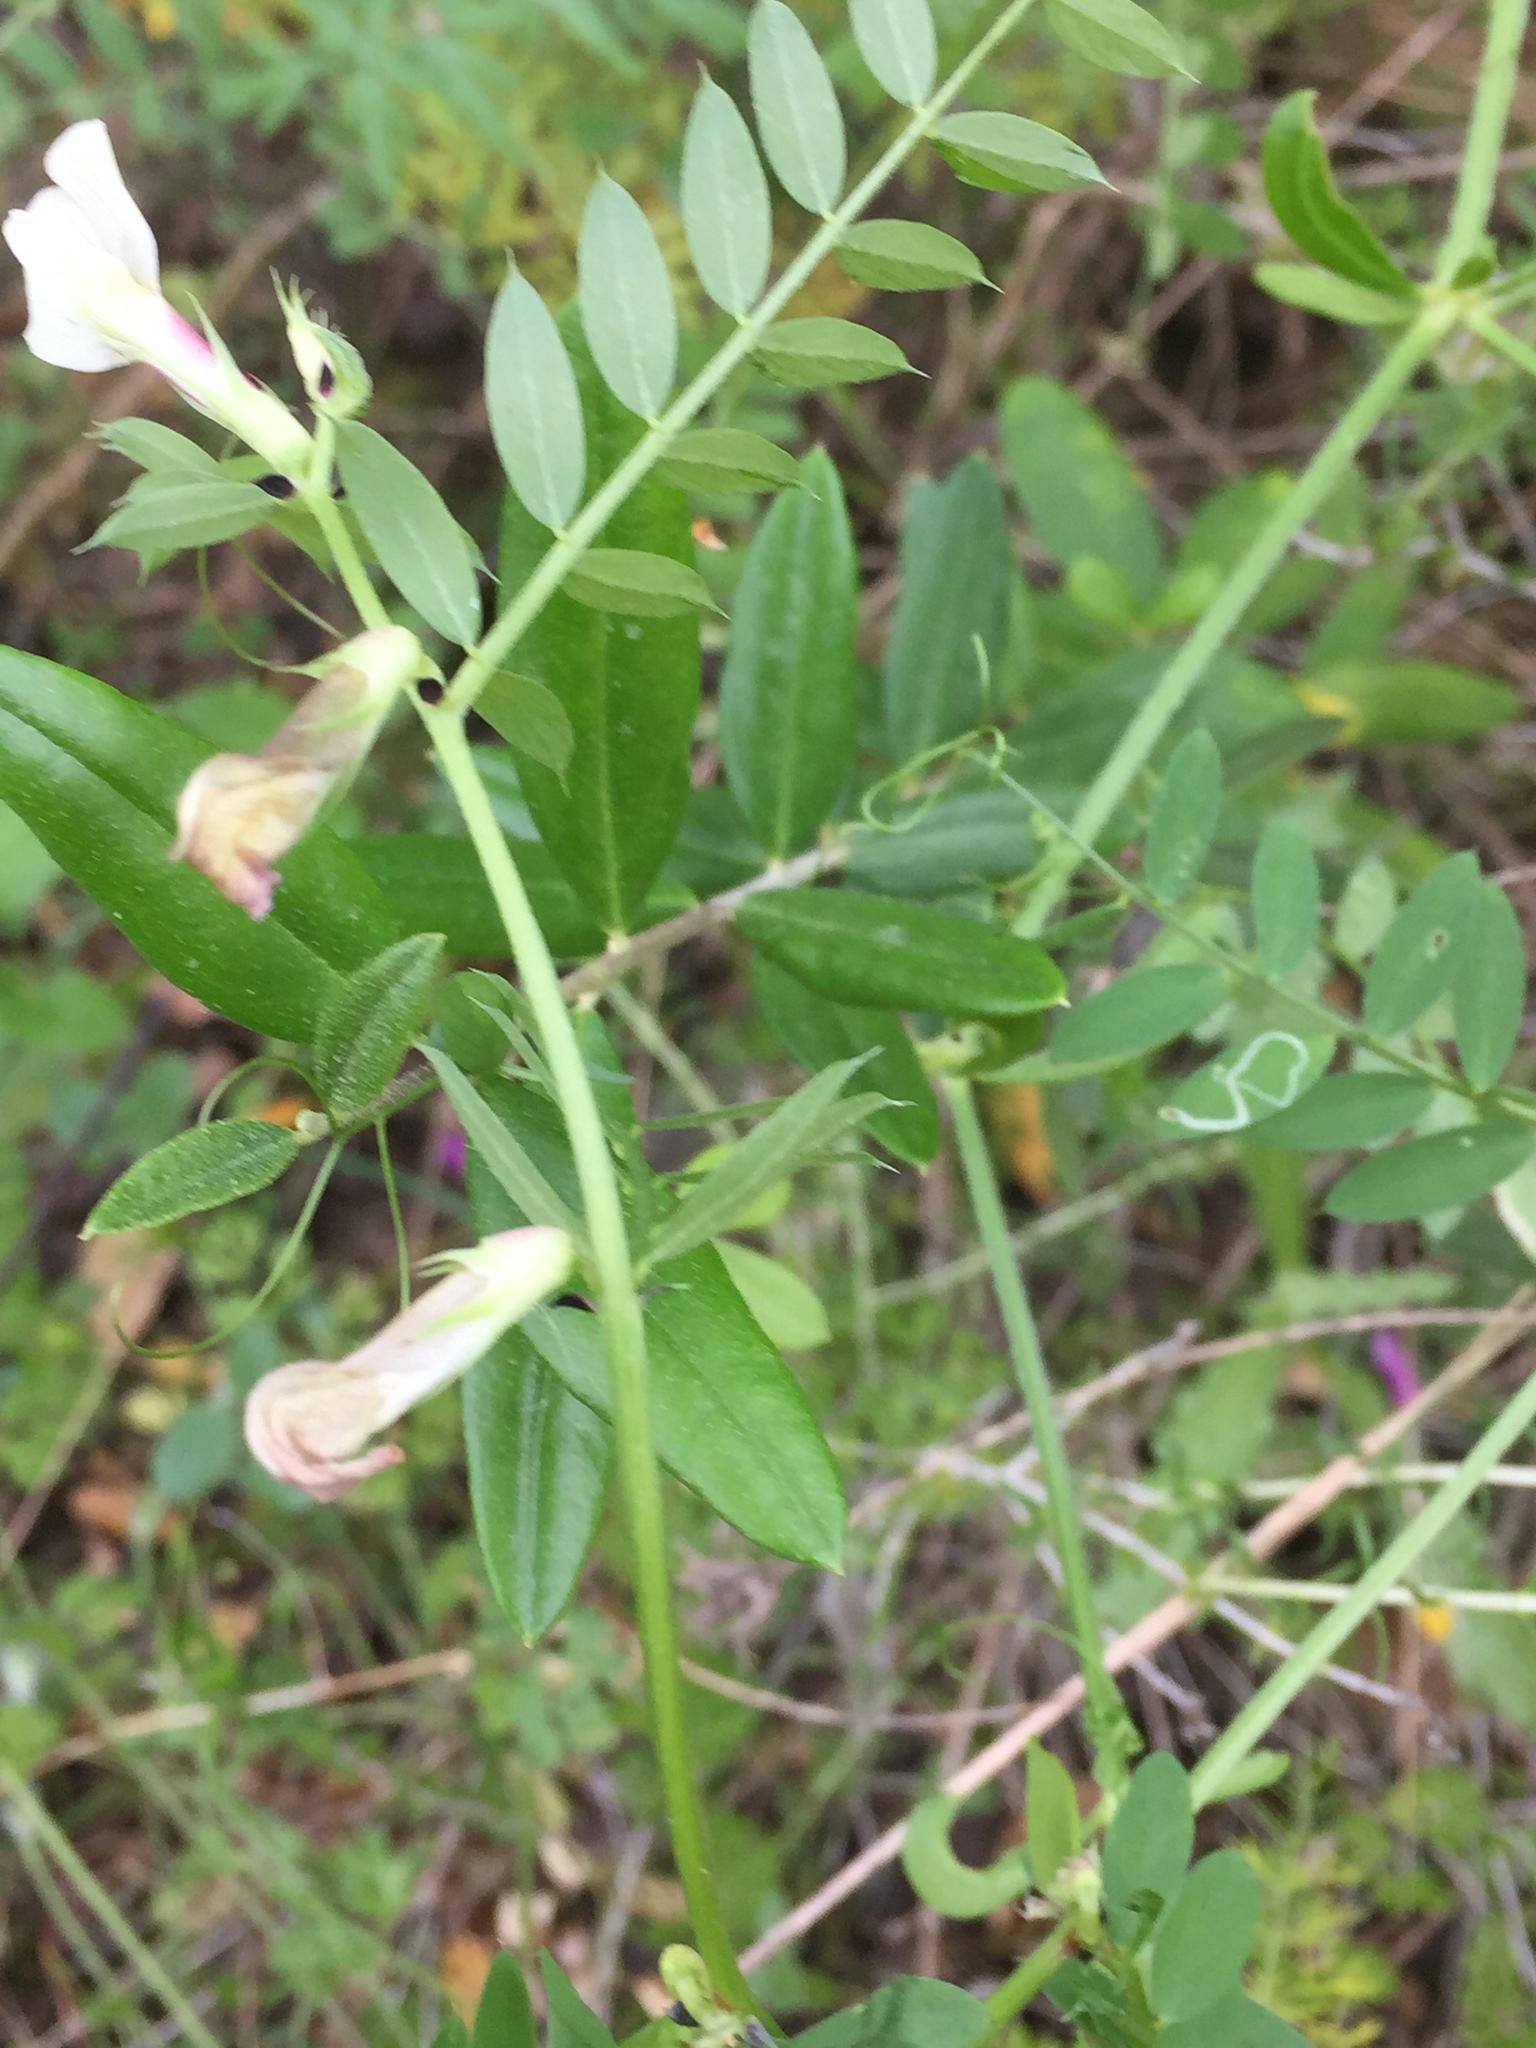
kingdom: Plantae
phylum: Tracheophyta
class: Magnoliopsida
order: Fabales
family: Fabaceae
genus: Vicia
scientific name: Vicia lutea
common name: Smooth yellow vetch
